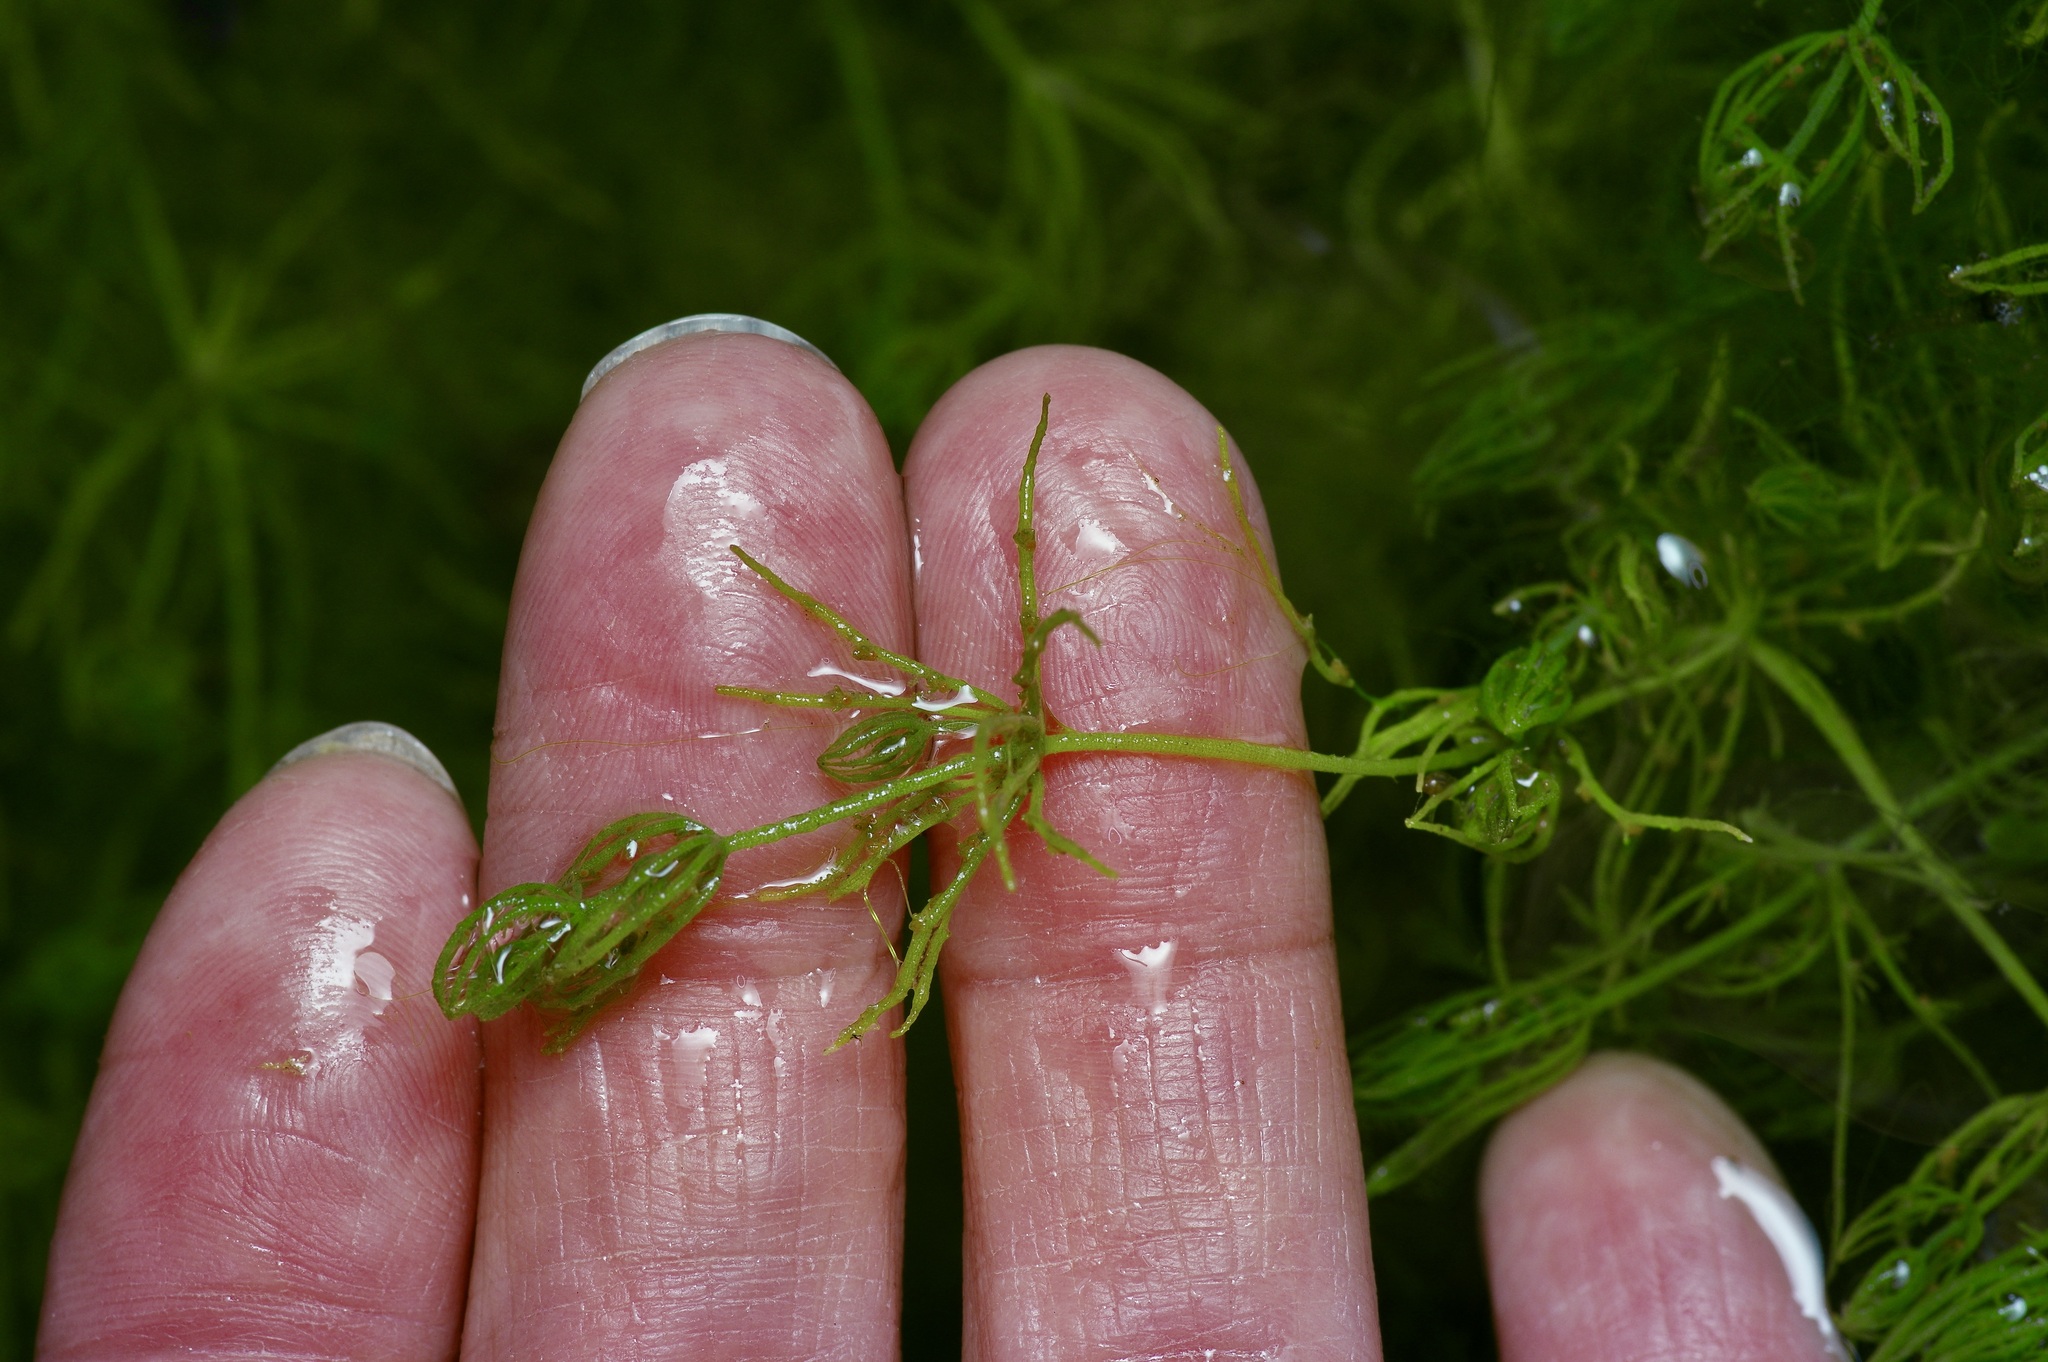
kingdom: Plantae
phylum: Charophyta
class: Charophyceae
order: Charales
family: Characeae
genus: Chara
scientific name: Chara contraria
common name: Opposite stonewort
